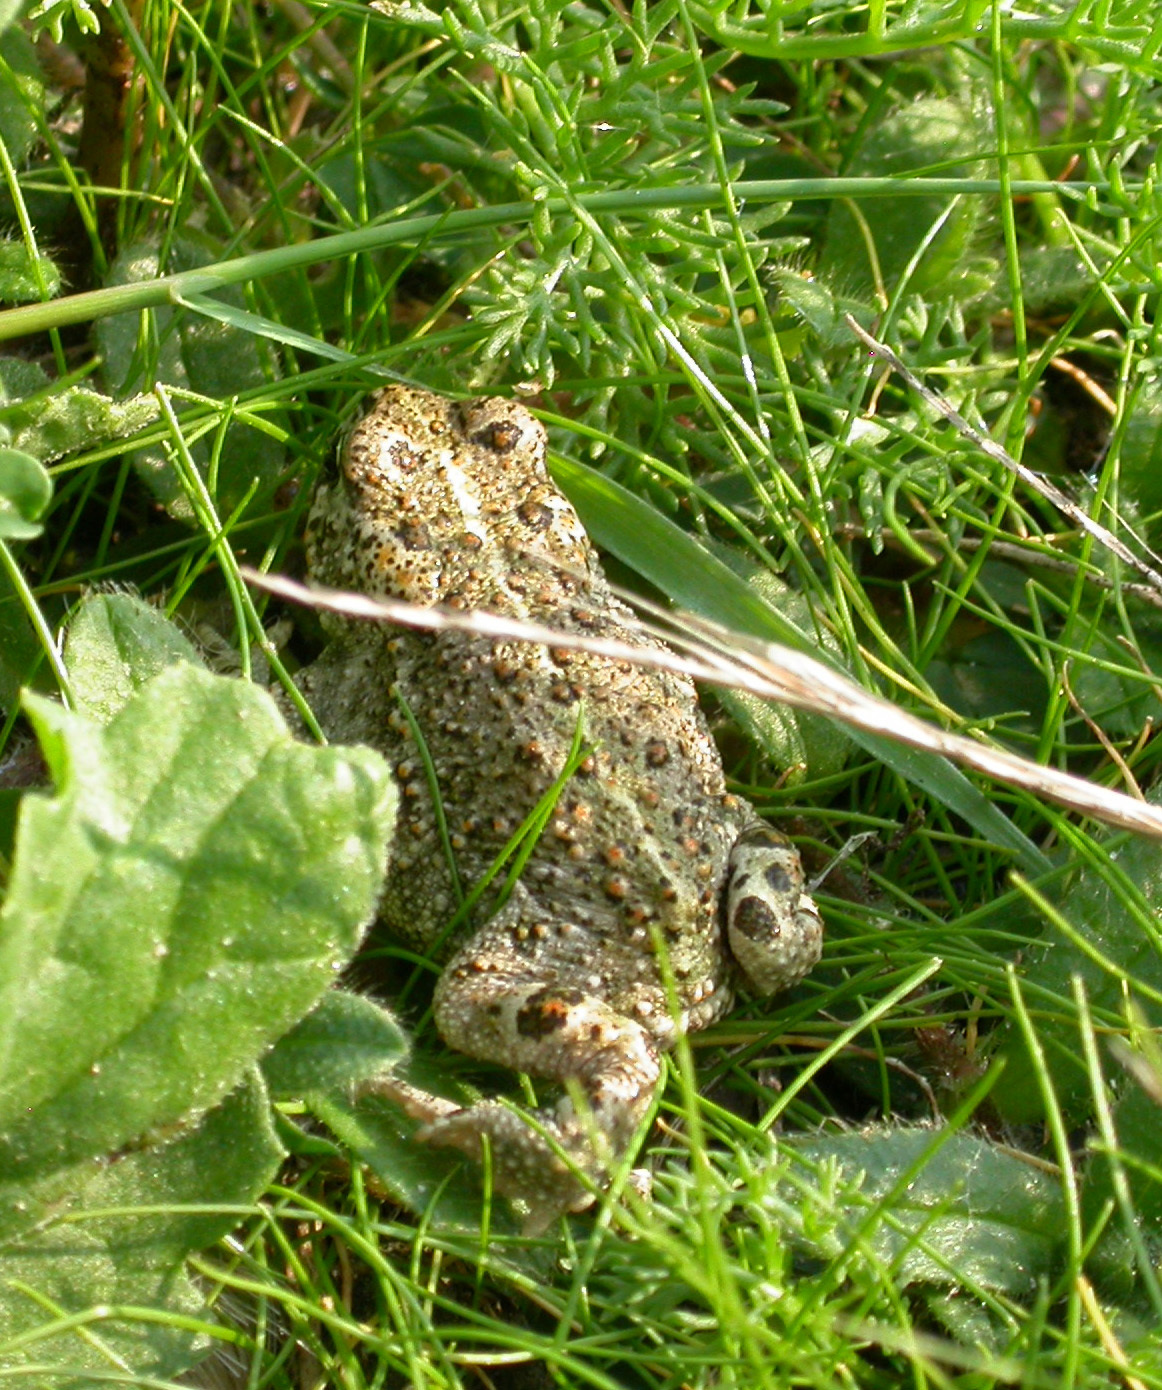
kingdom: Animalia
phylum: Chordata
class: Amphibia
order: Anura
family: Bufonidae
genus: Epidalea
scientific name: Epidalea calamita
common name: Natterjack toad
